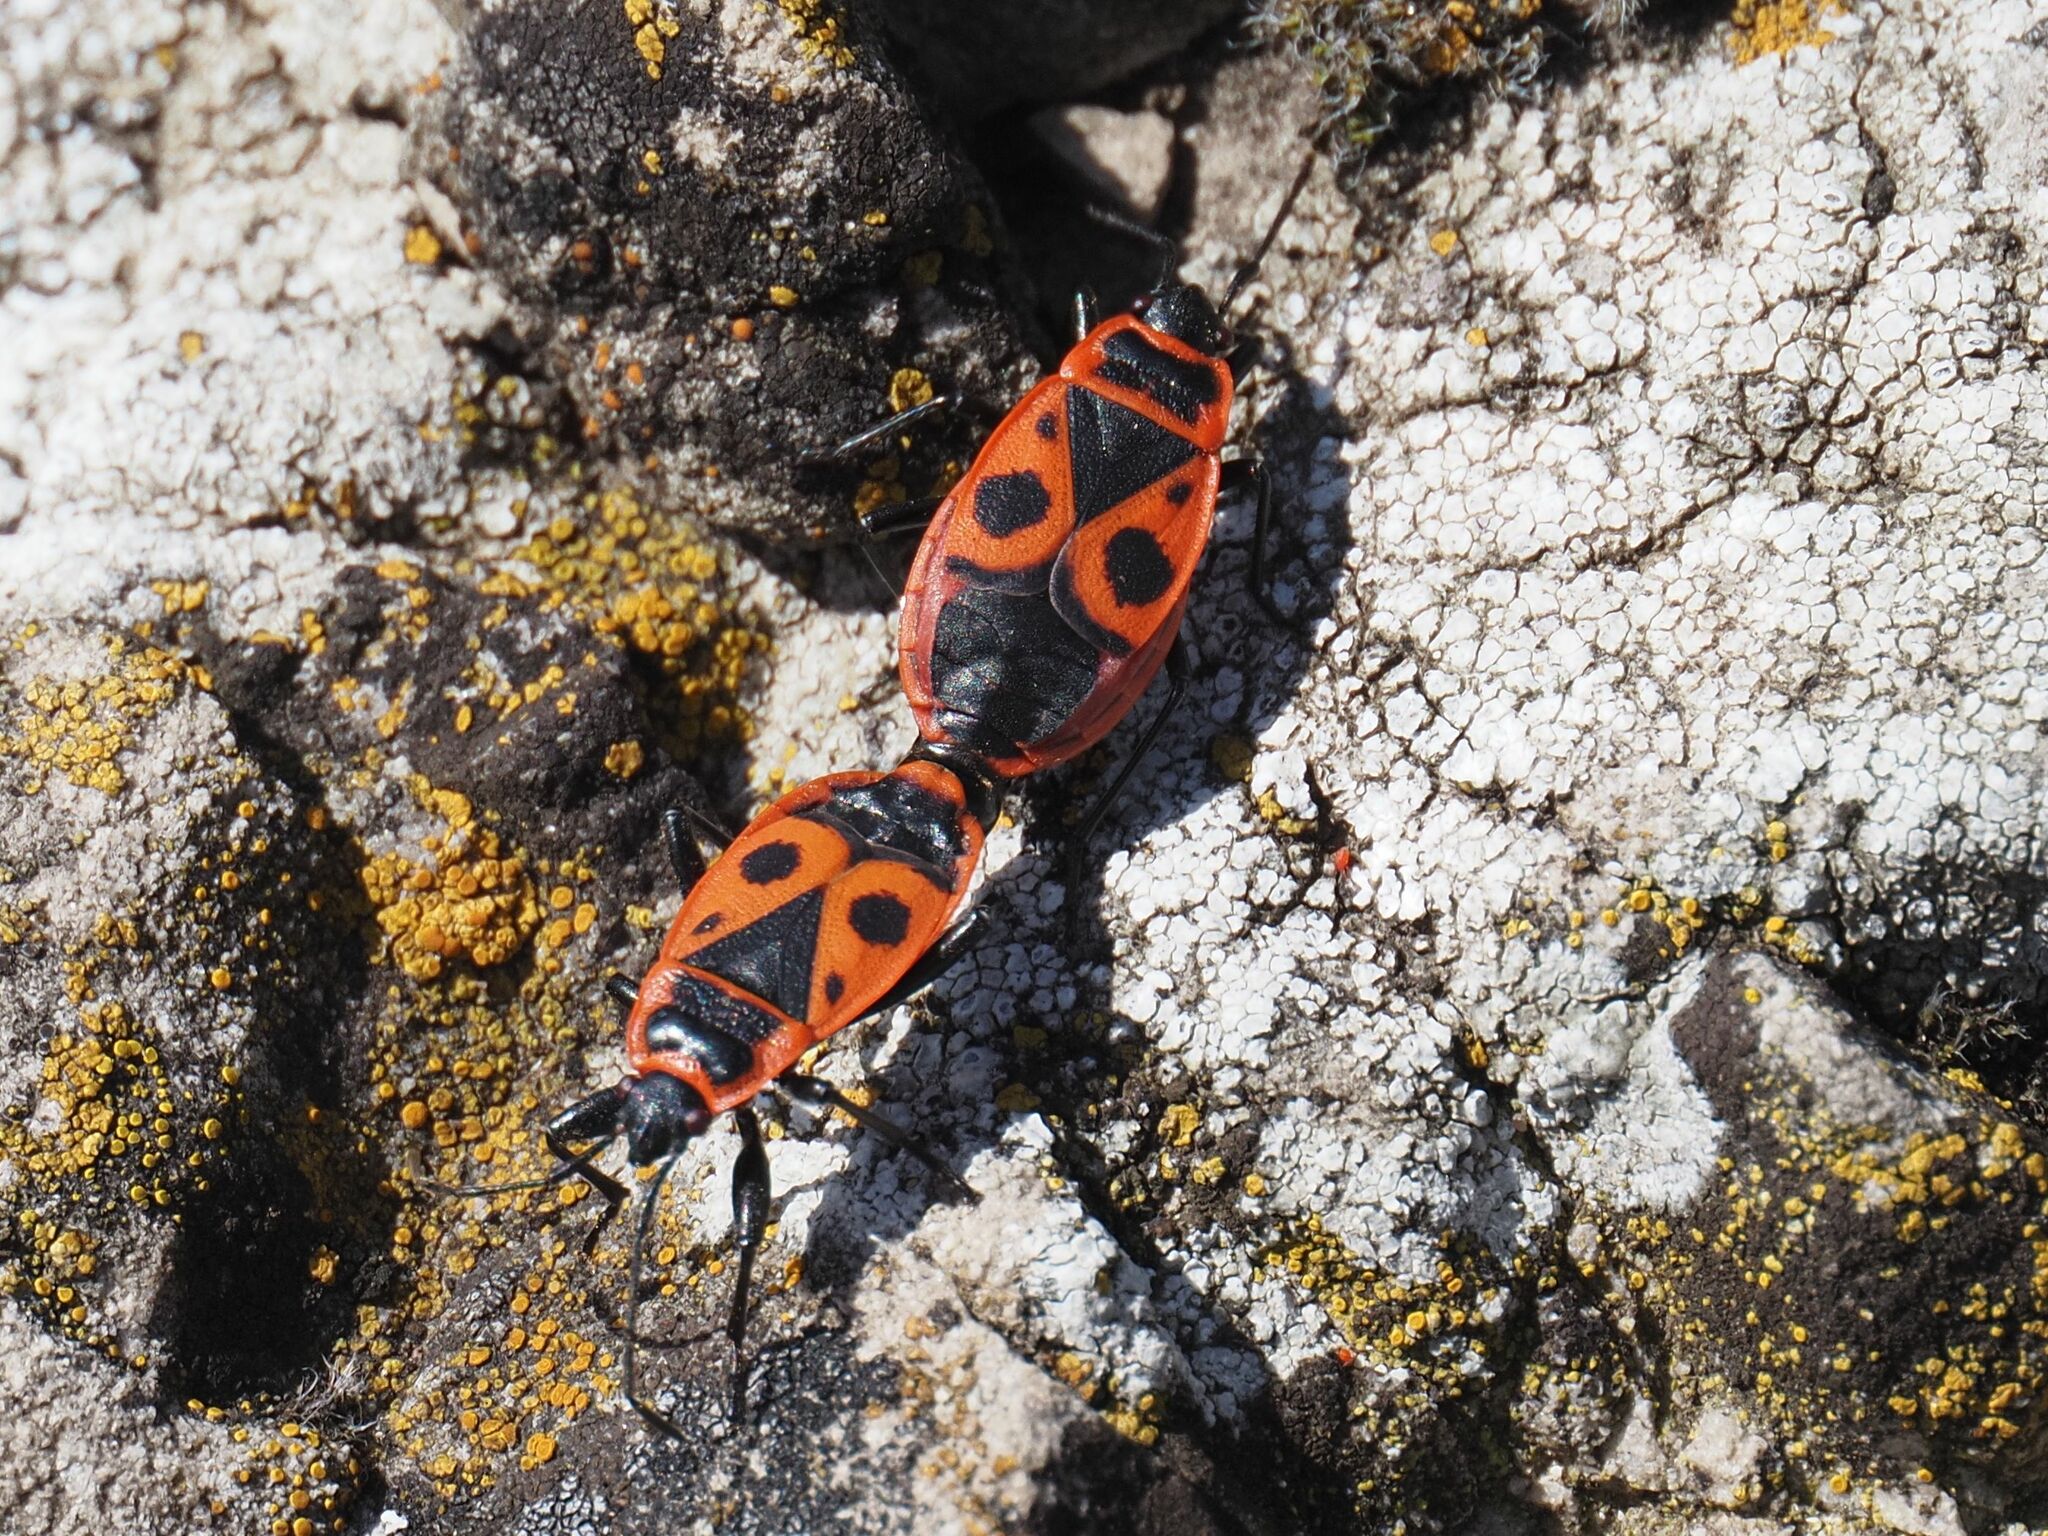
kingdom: Animalia
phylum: Arthropoda
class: Insecta
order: Hemiptera
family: Pyrrhocoridae
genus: Pyrrhocoris
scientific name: Pyrrhocoris apterus
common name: Firebug
